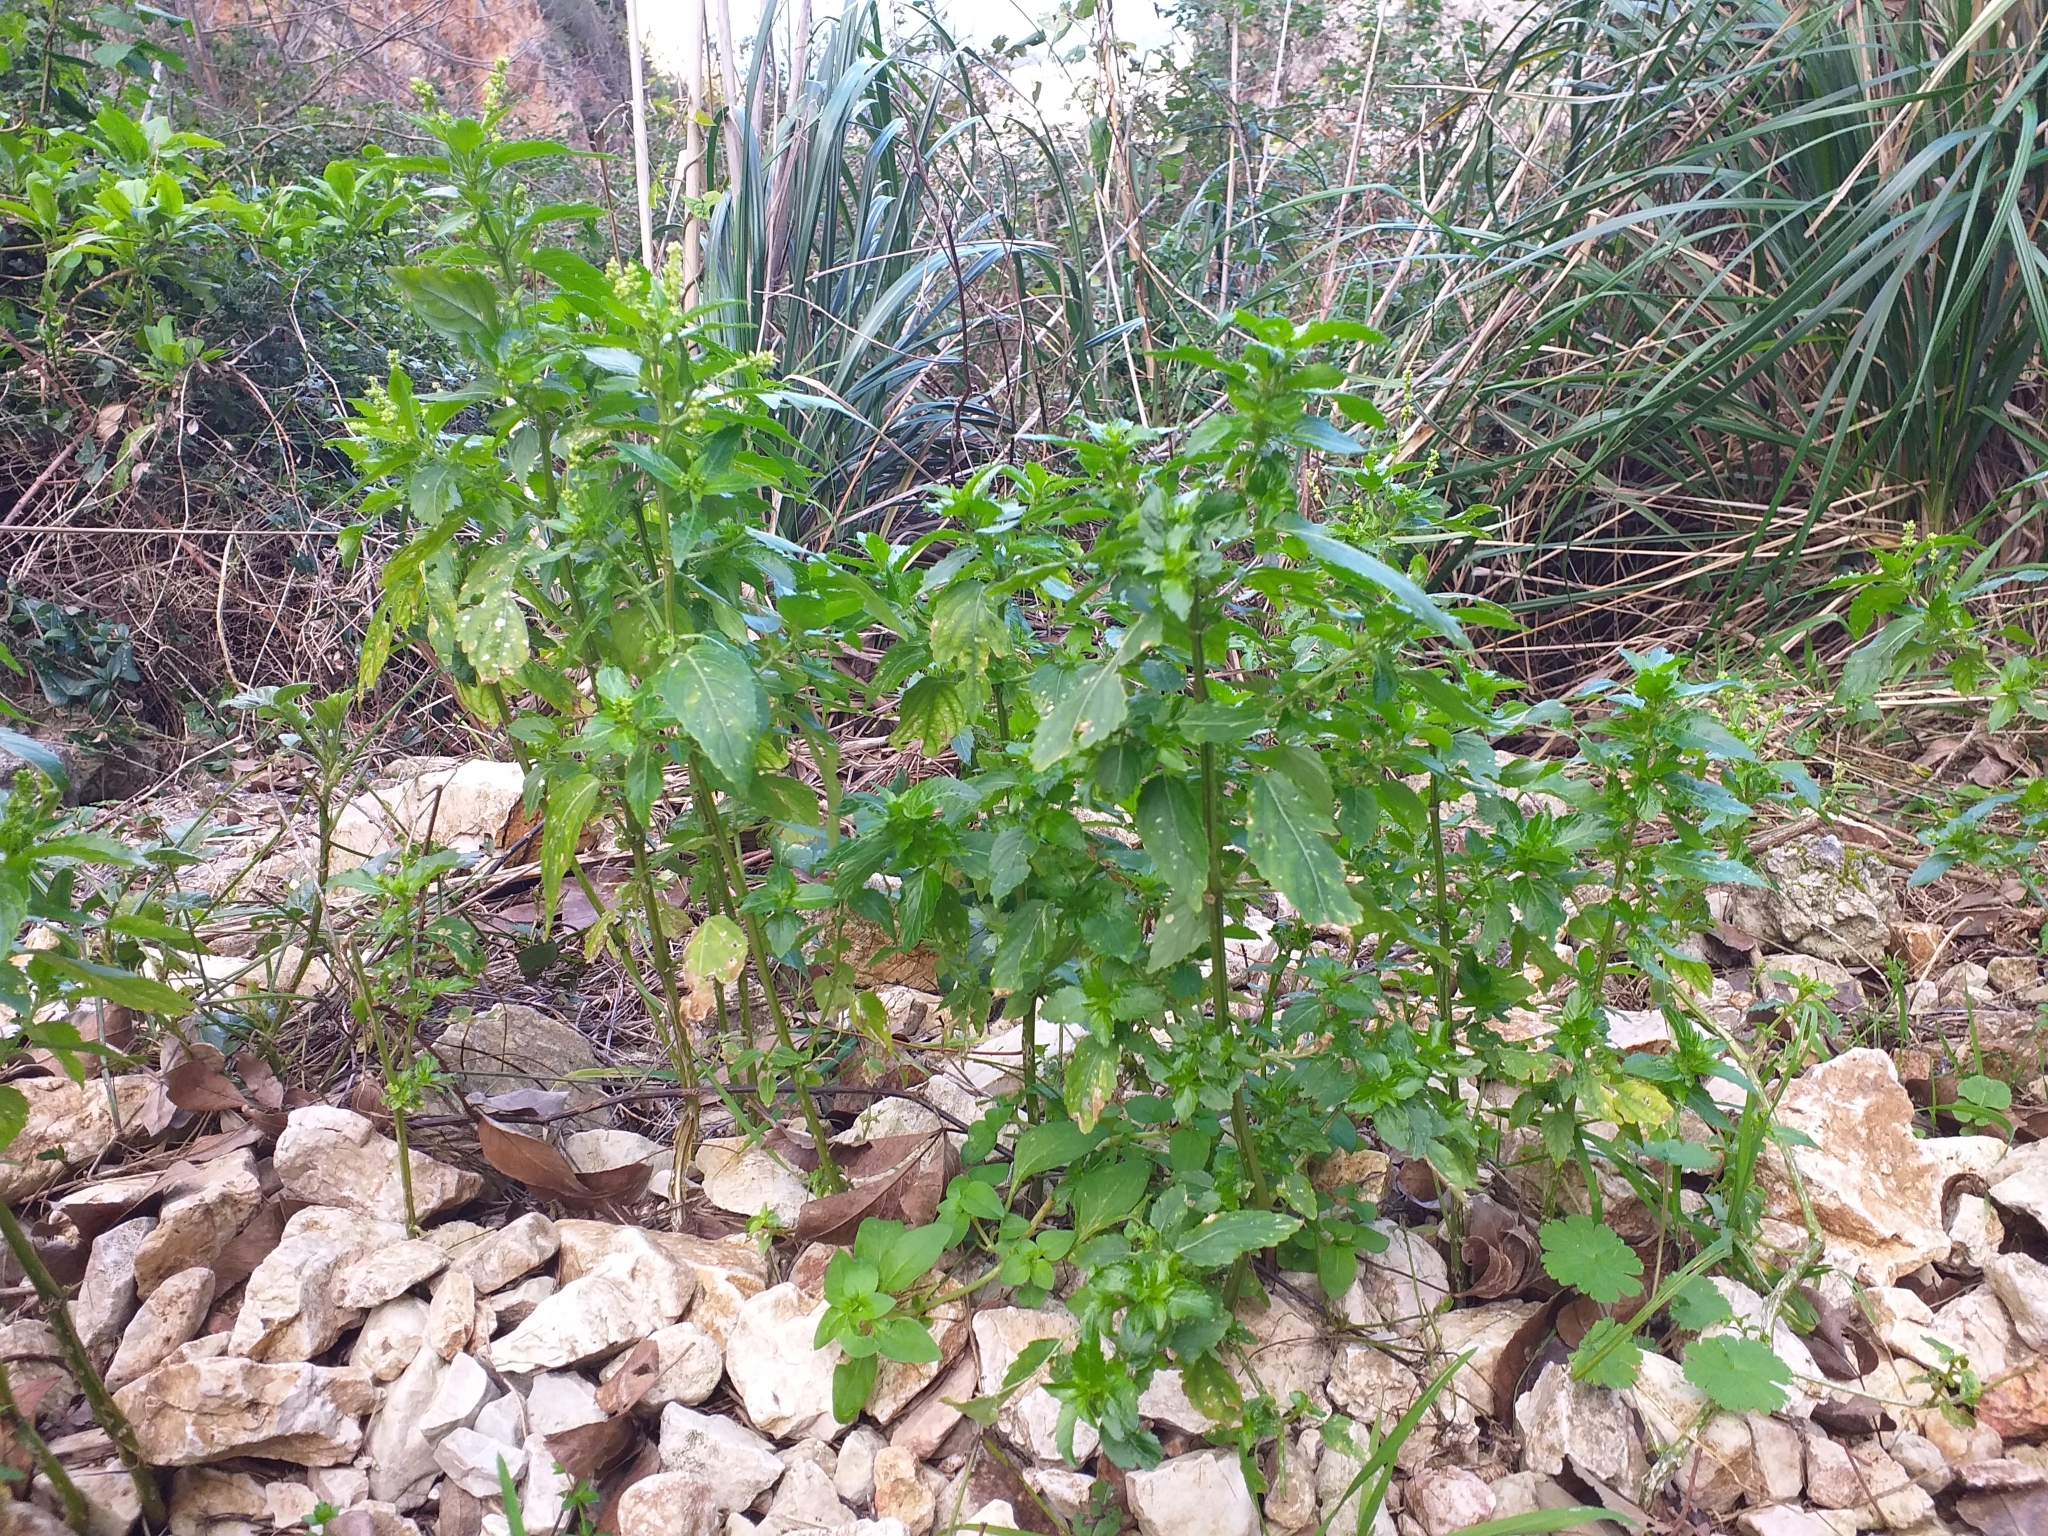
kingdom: Plantae
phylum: Tracheophyta
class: Magnoliopsida
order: Malpighiales
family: Euphorbiaceae
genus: Mercurialis
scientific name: Mercurialis annua
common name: Annual mercury
